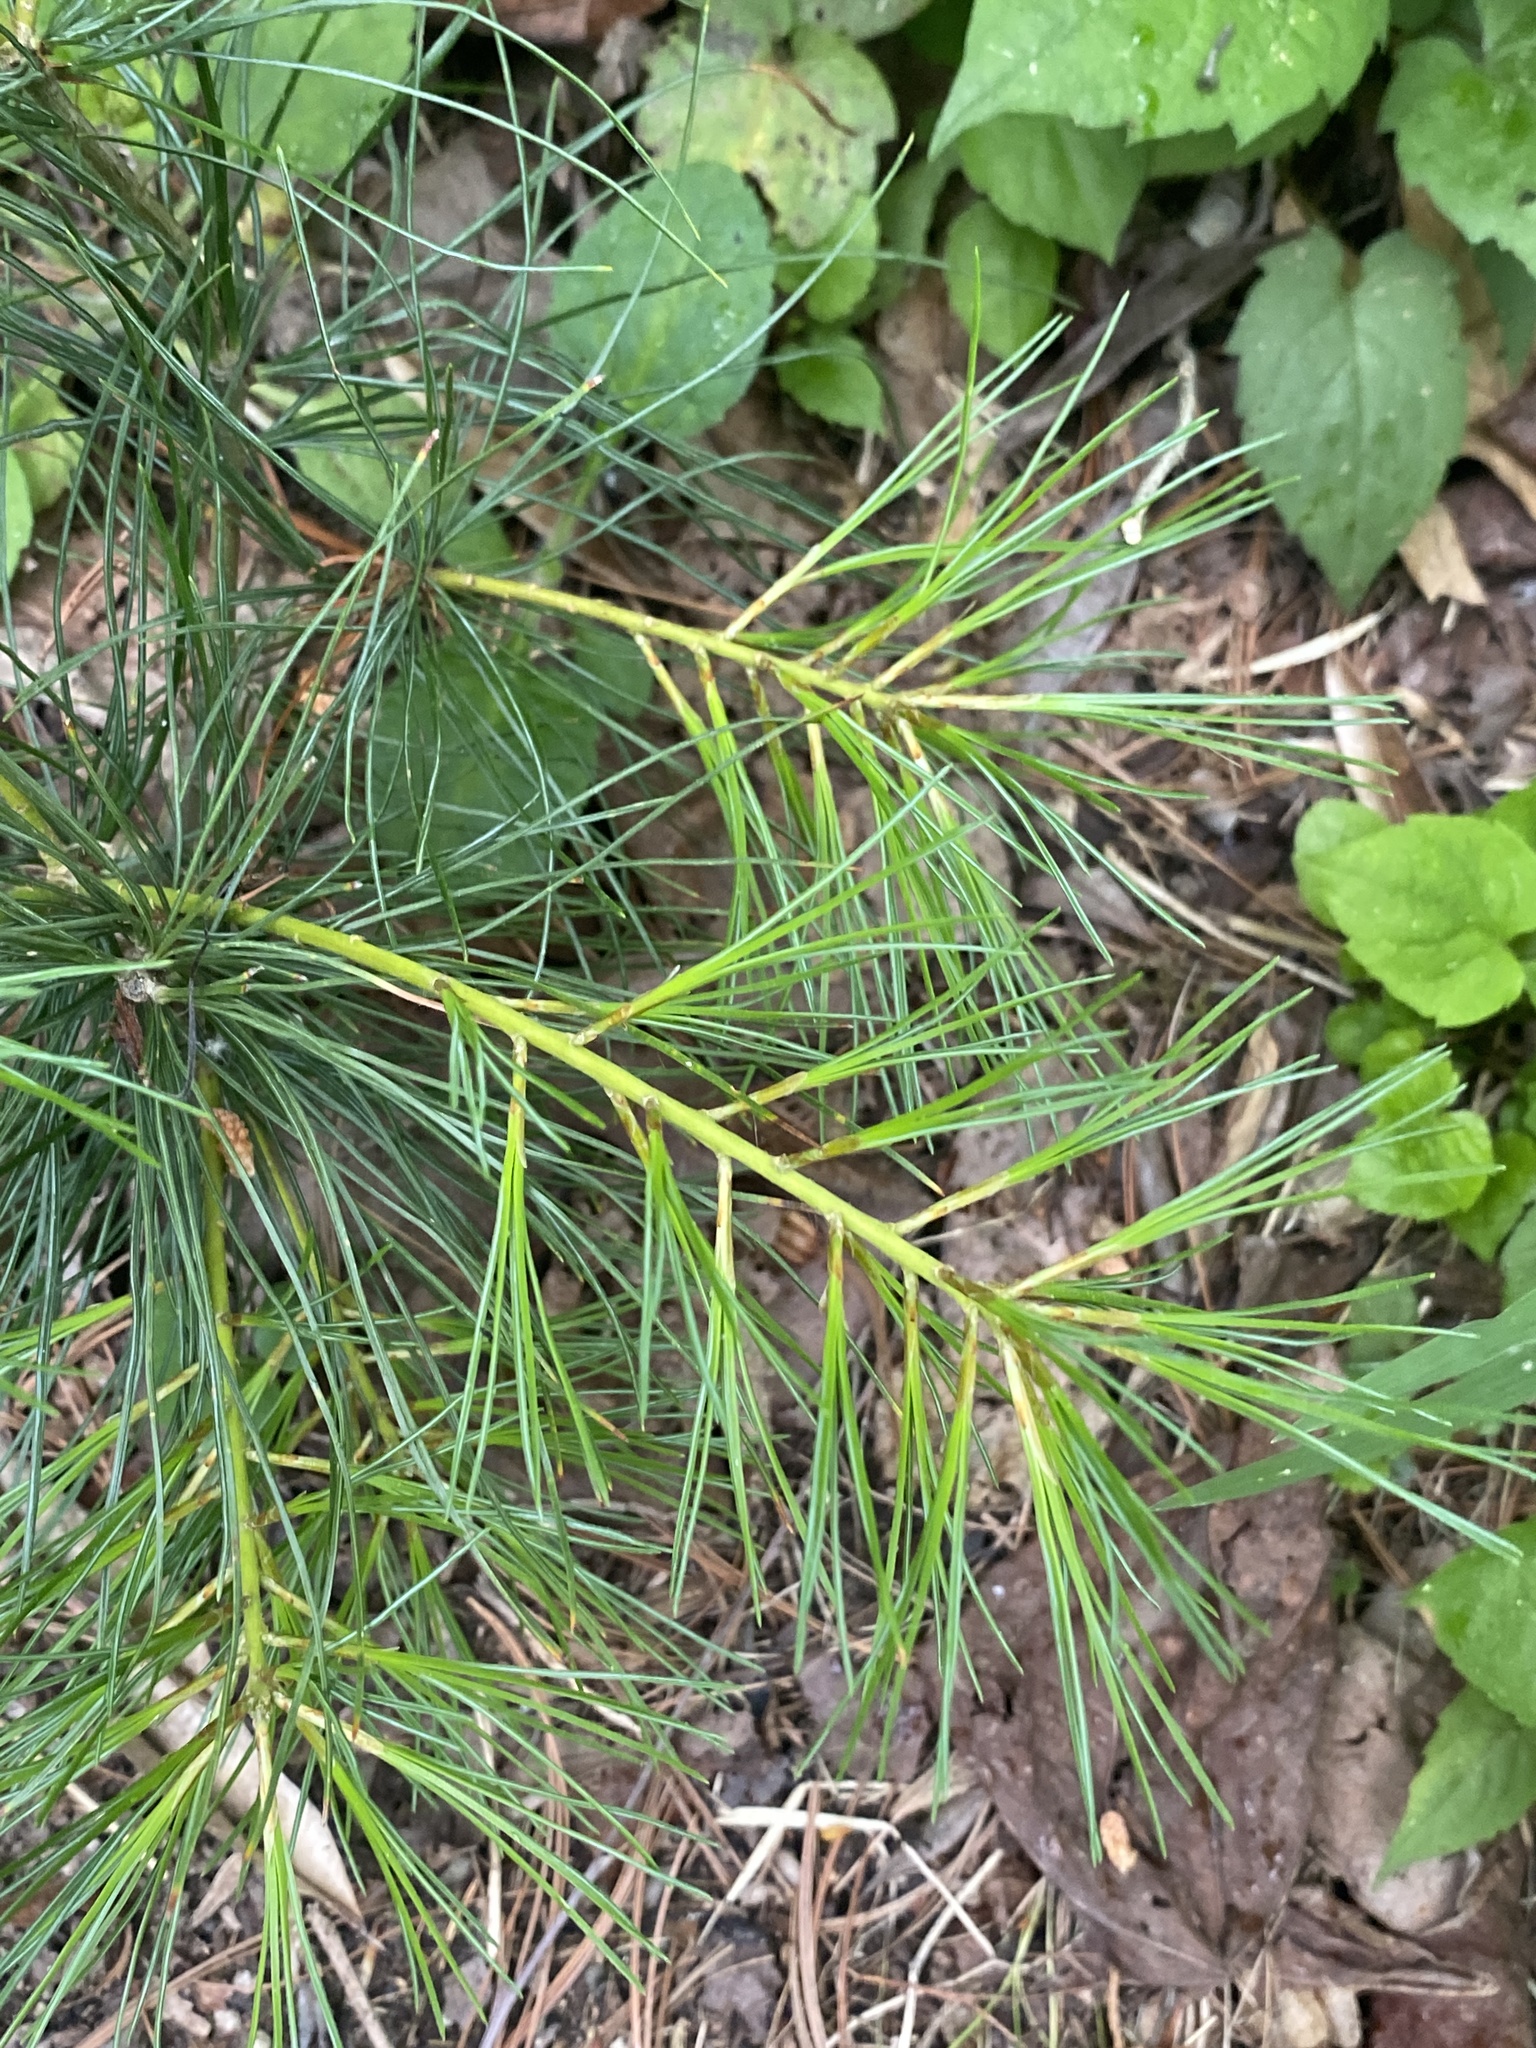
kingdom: Plantae
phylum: Tracheophyta
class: Pinopsida
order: Pinales
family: Pinaceae
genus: Pinus
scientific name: Pinus strobus
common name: Weymouth pine
